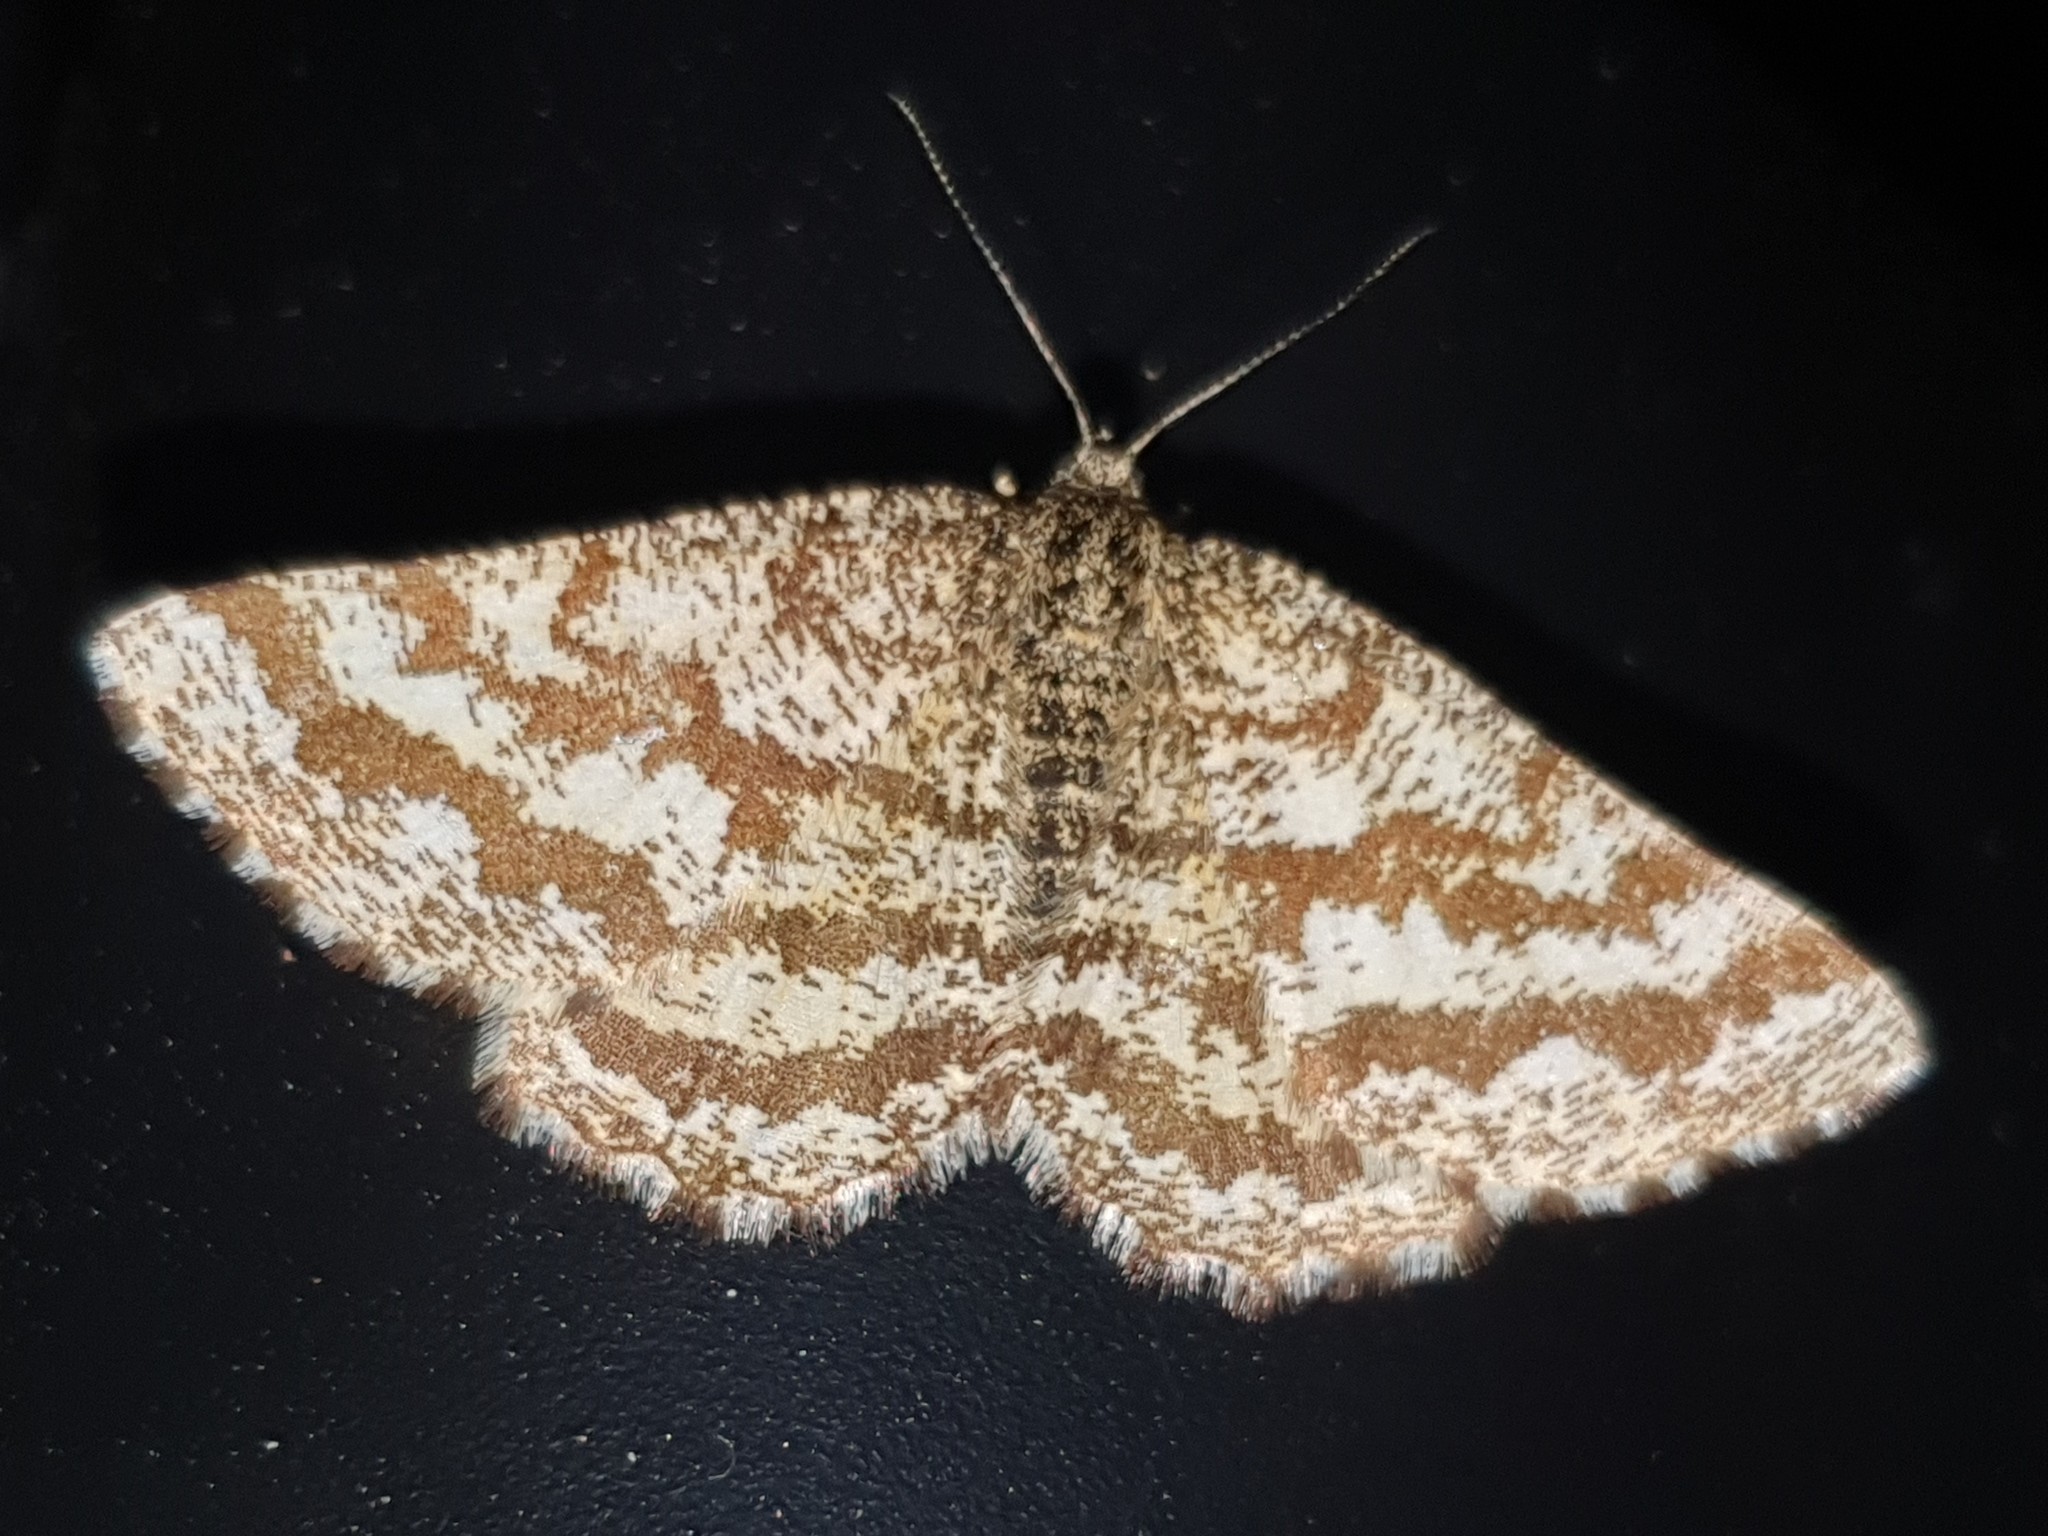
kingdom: Animalia
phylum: Arthropoda
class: Insecta
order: Lepidoptera
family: Geometridae
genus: Ematurga
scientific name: Ematurga atomaria
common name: Common heath
